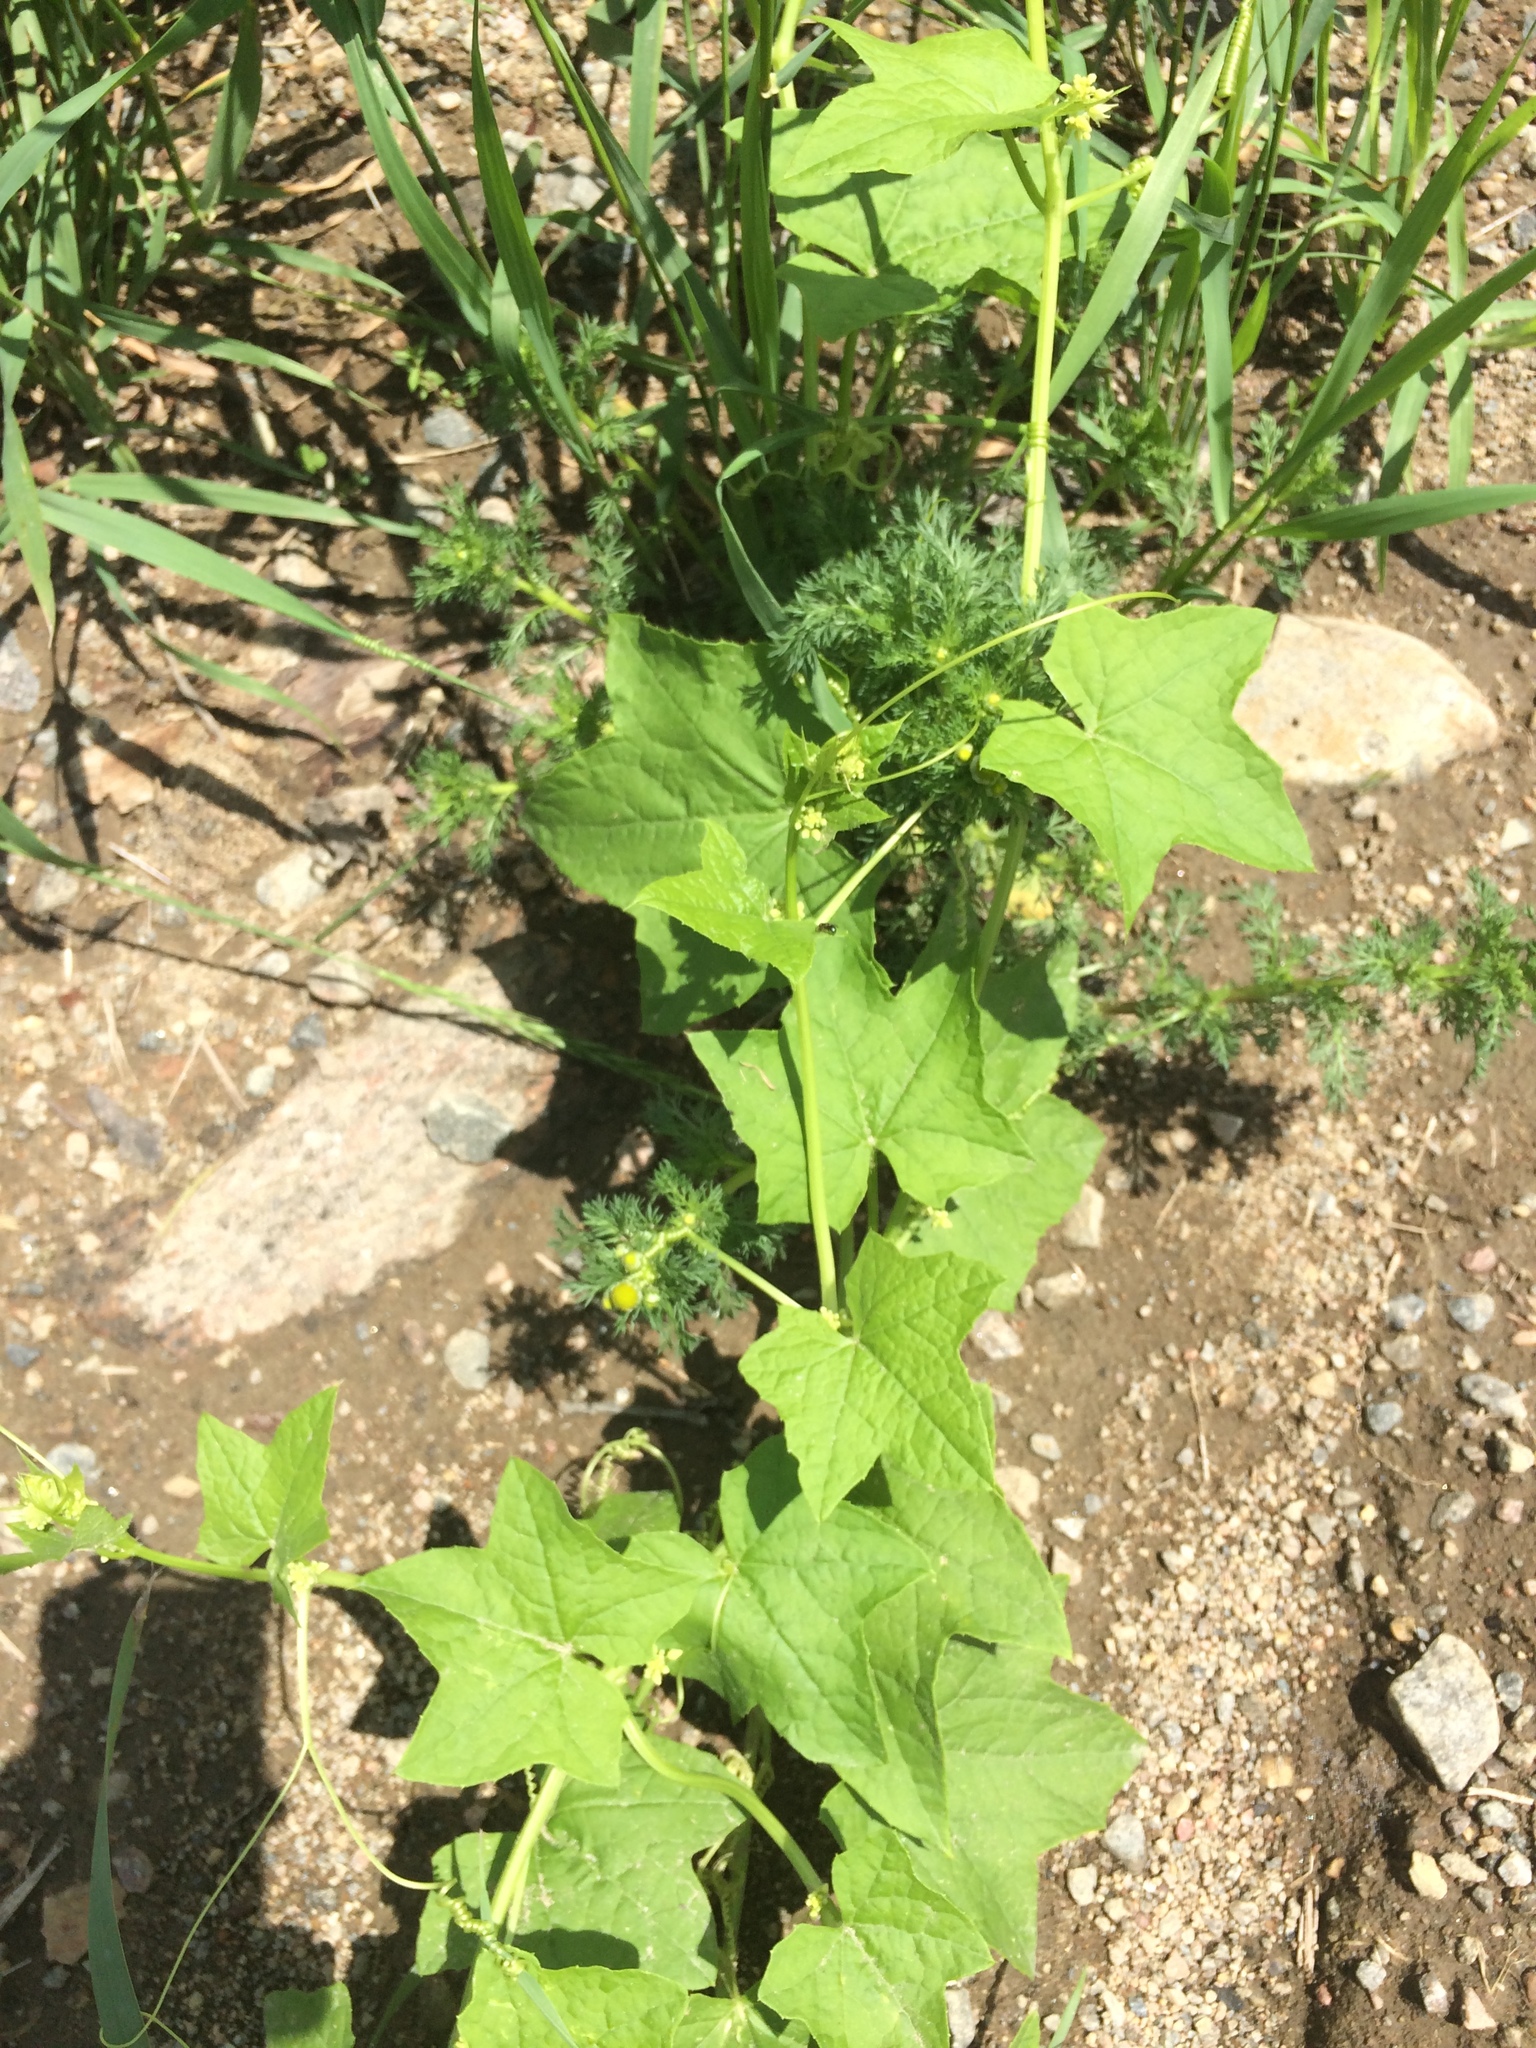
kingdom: Plantae
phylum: Tracheophyta
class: Magnoliopsida
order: Cucurbitales
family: Cucurbitaceae
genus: Echinocystis
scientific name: Echinocystis lobata
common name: Wild cucumber
